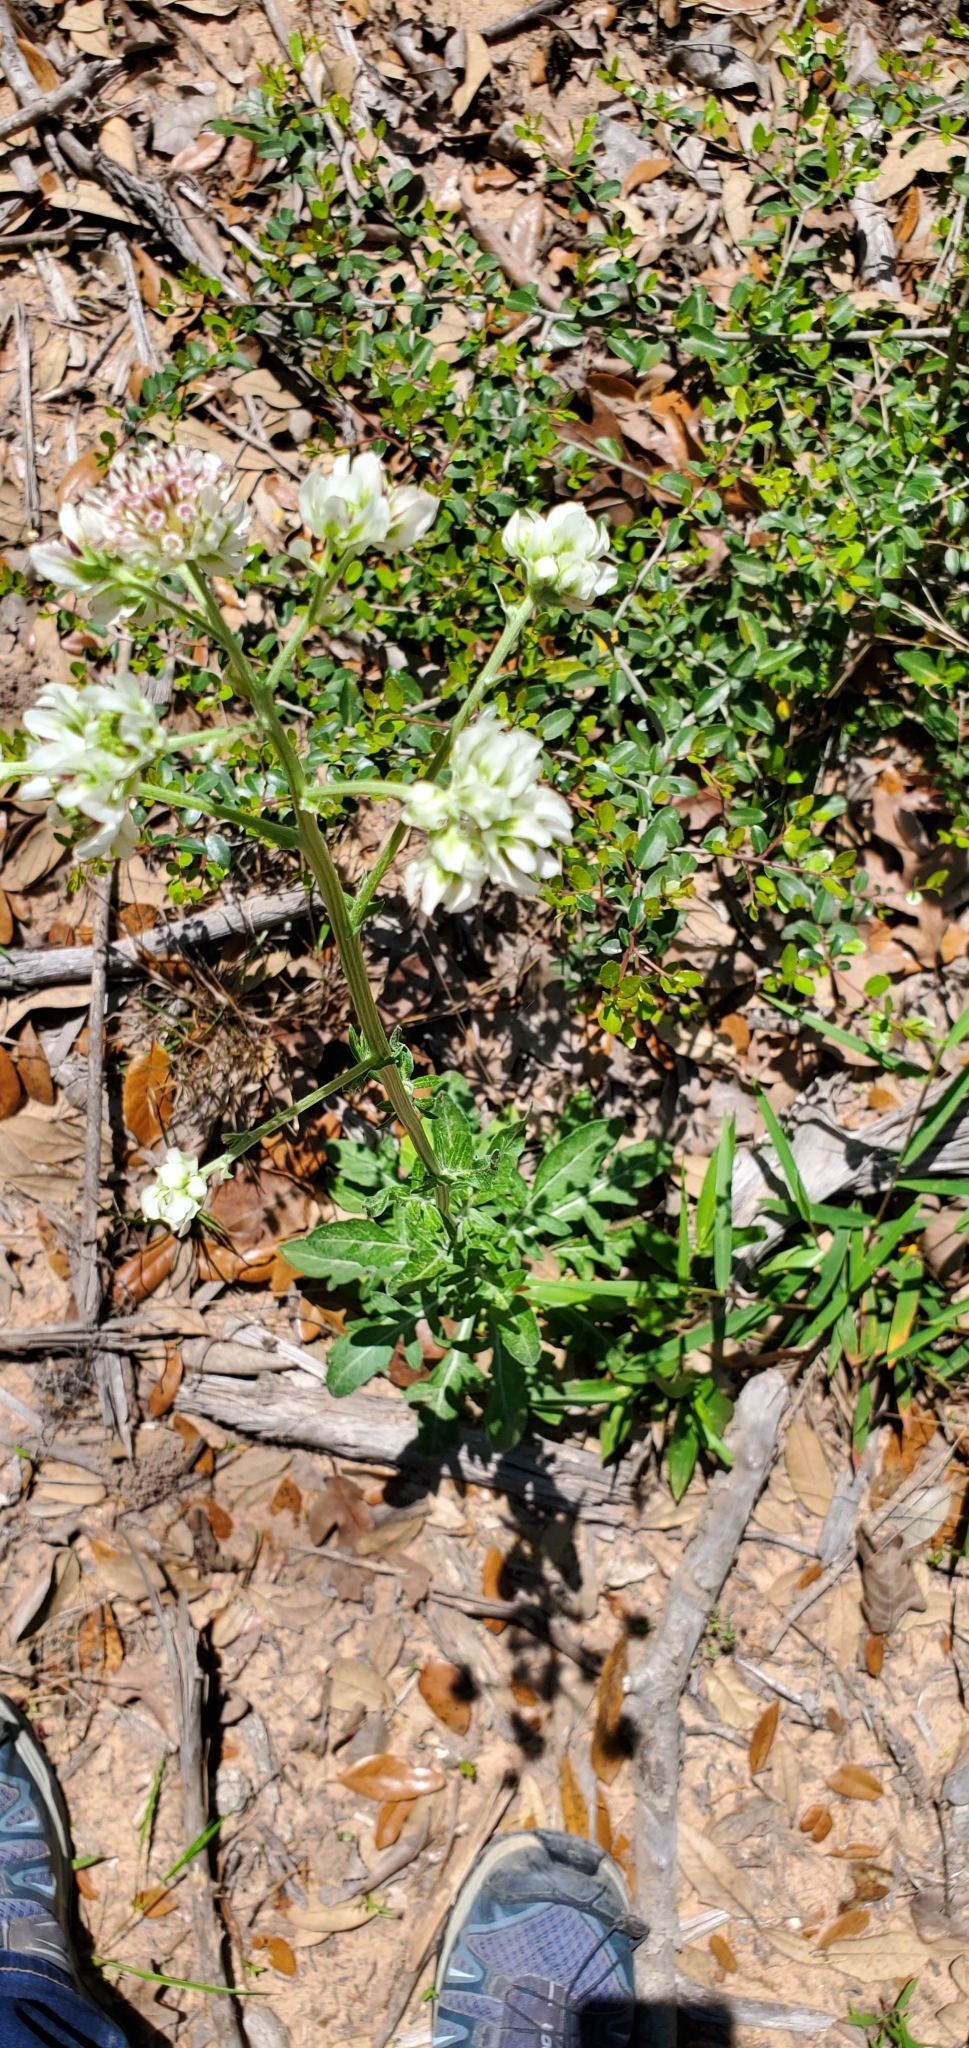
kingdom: Plantae
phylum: Tracheophyta
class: Magnoliopsida
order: Asterales
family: Asteraceae
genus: Hymenopappus
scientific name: Hymenopappus artemisiifolius
